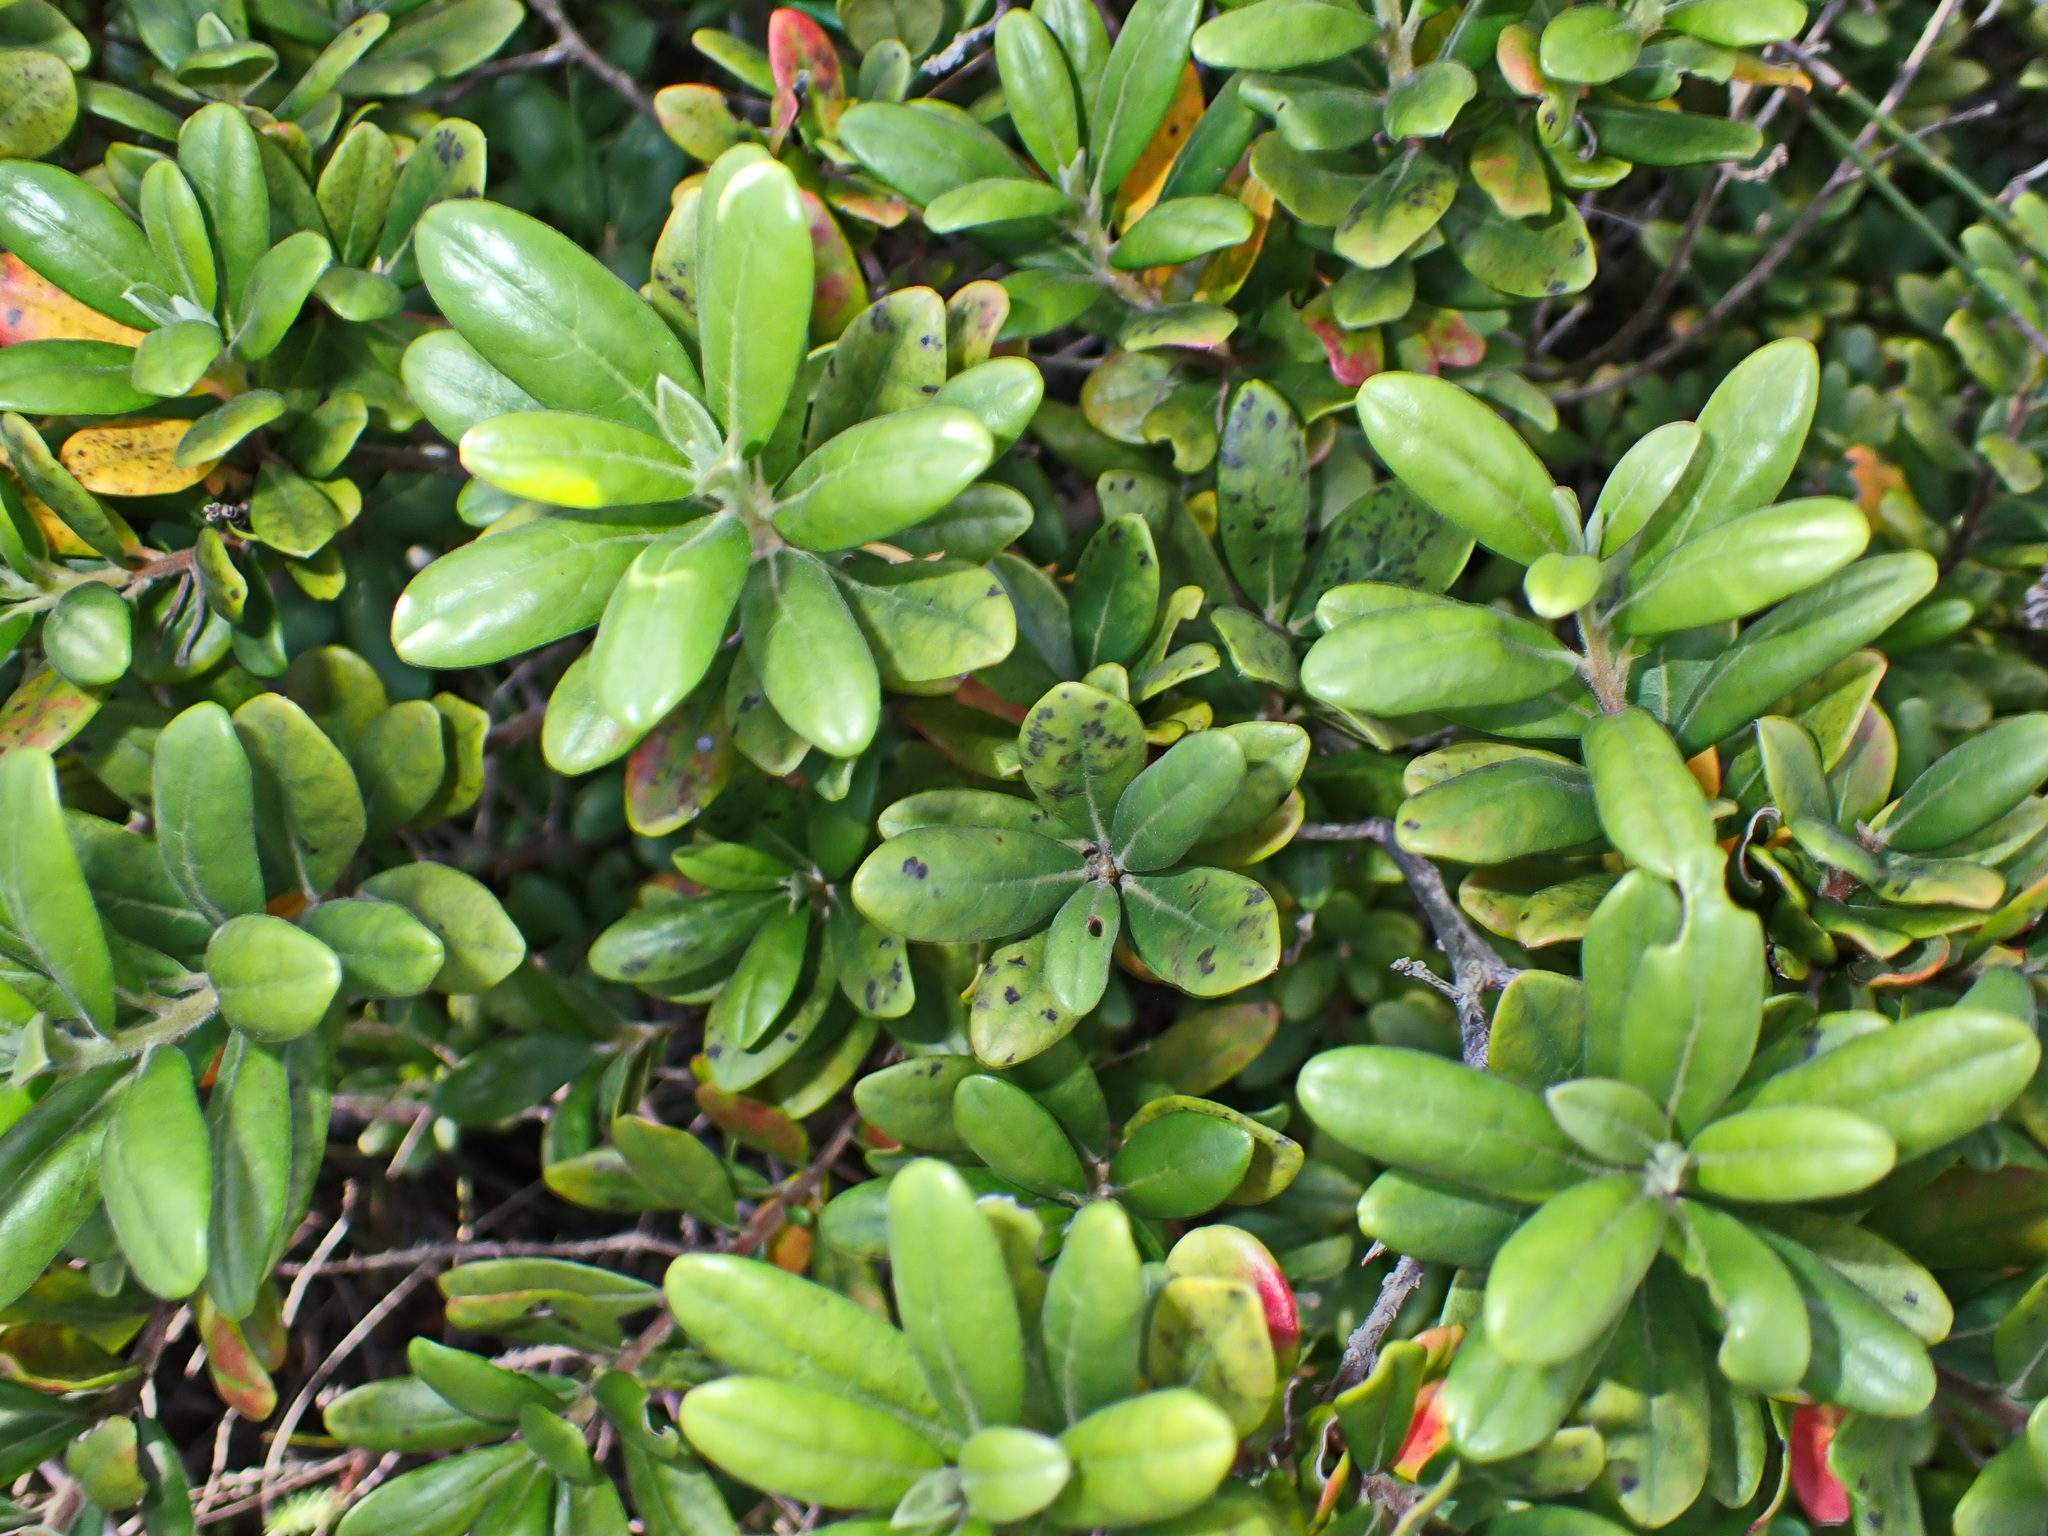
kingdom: Plantae
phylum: Tracheophyta
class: Magnoliopsida
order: Ericales
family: Ebenaceae
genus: Diospyros
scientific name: Diospyros dichrophylla
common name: Common star-apple
